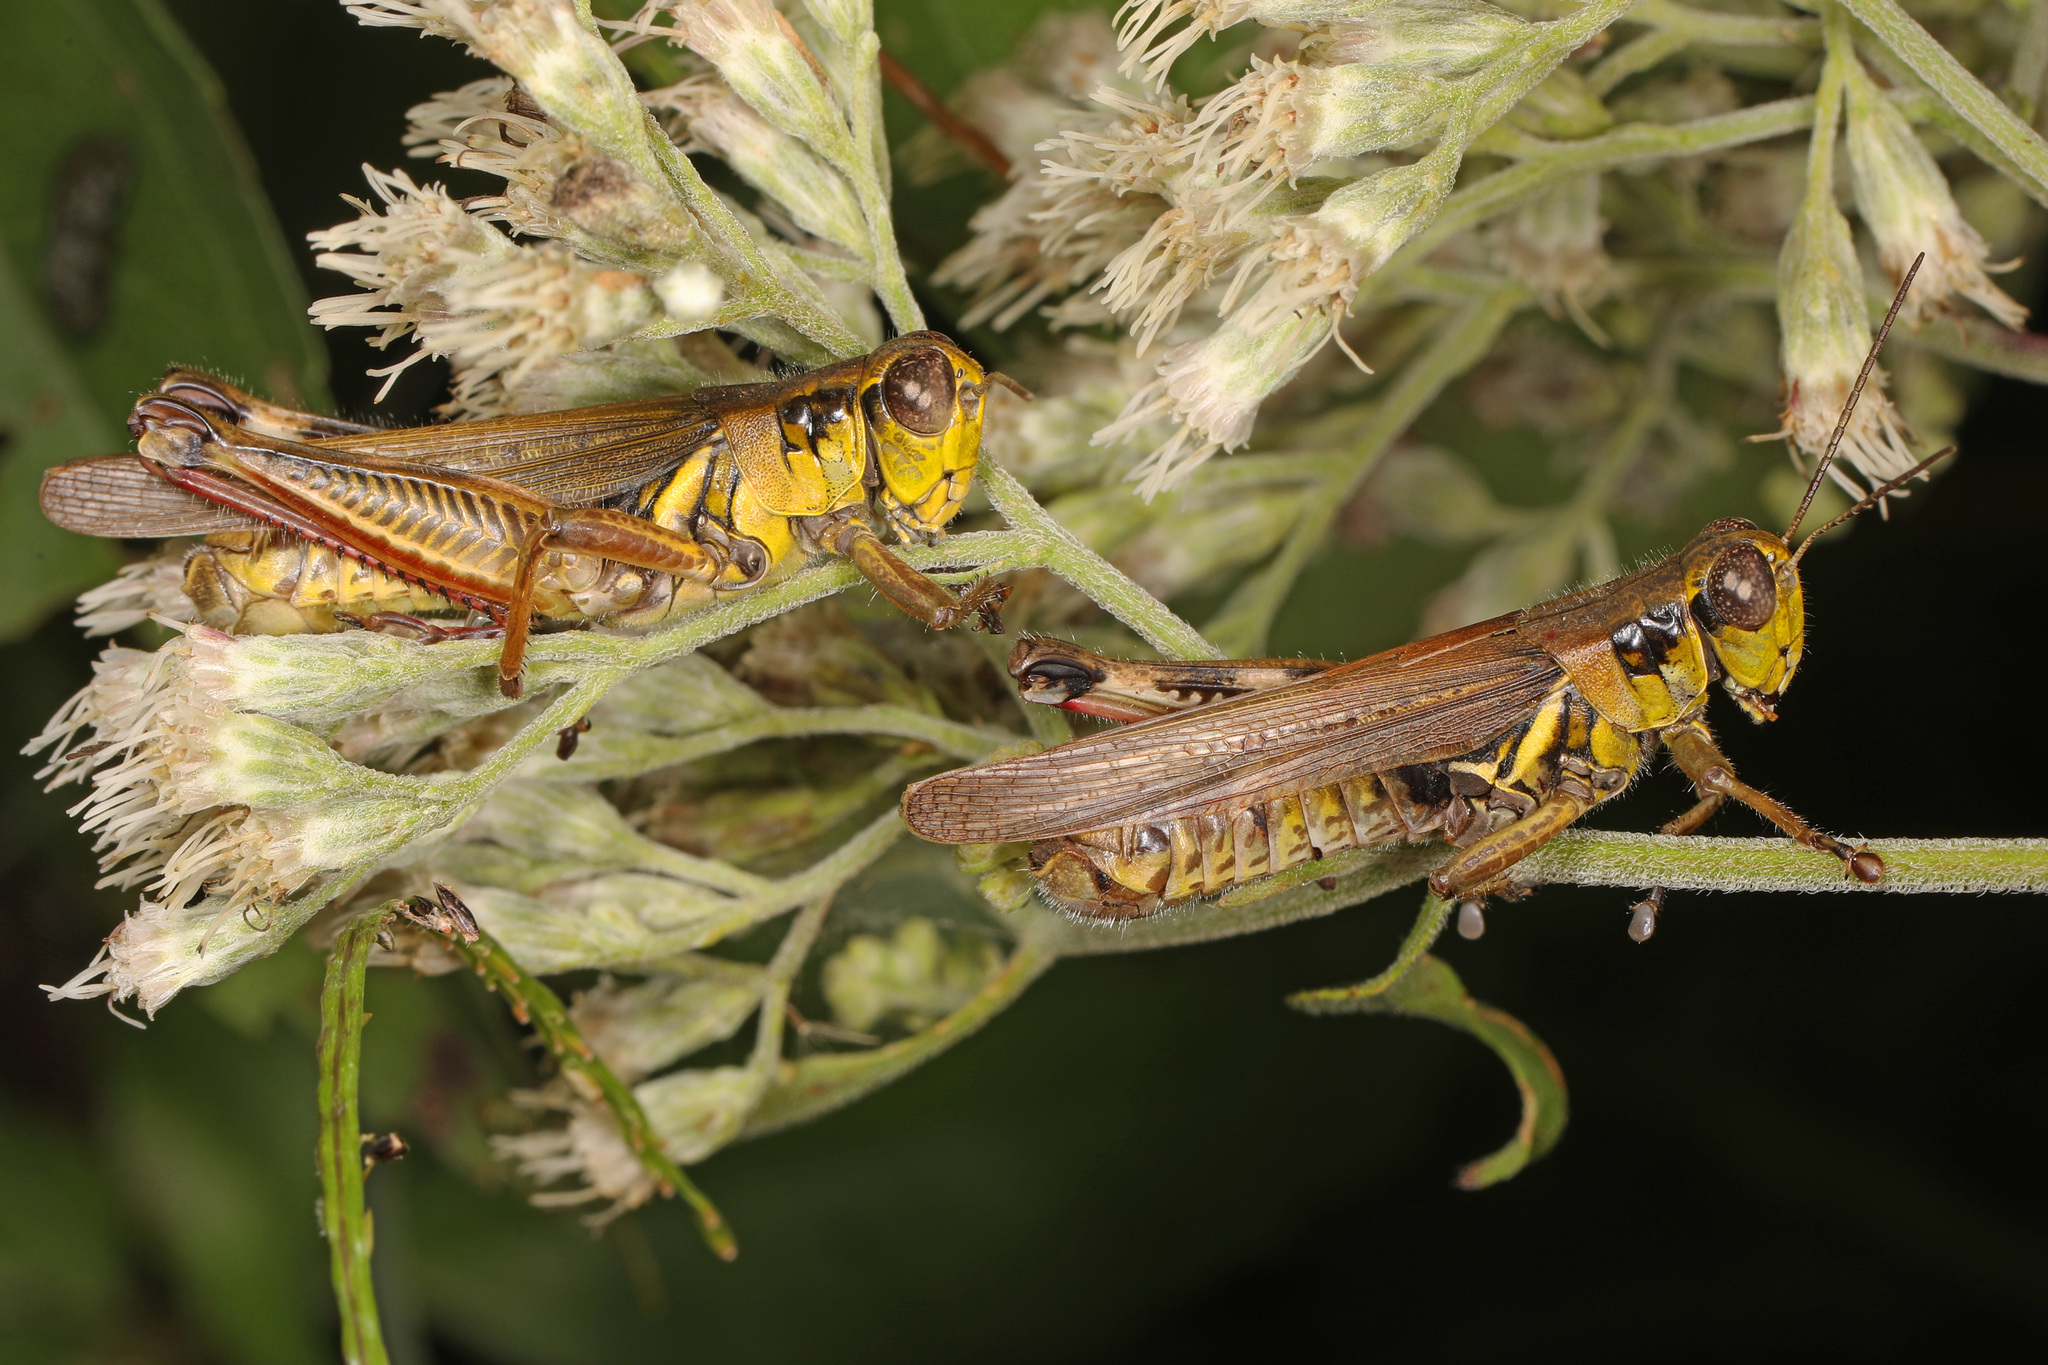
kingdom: Animalia
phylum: Arthropoda
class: Insecta
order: Orthoptera
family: Acrididae
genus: Melanoplus
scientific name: Melanoplus femurrubrum
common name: Red-legged grasshopper
